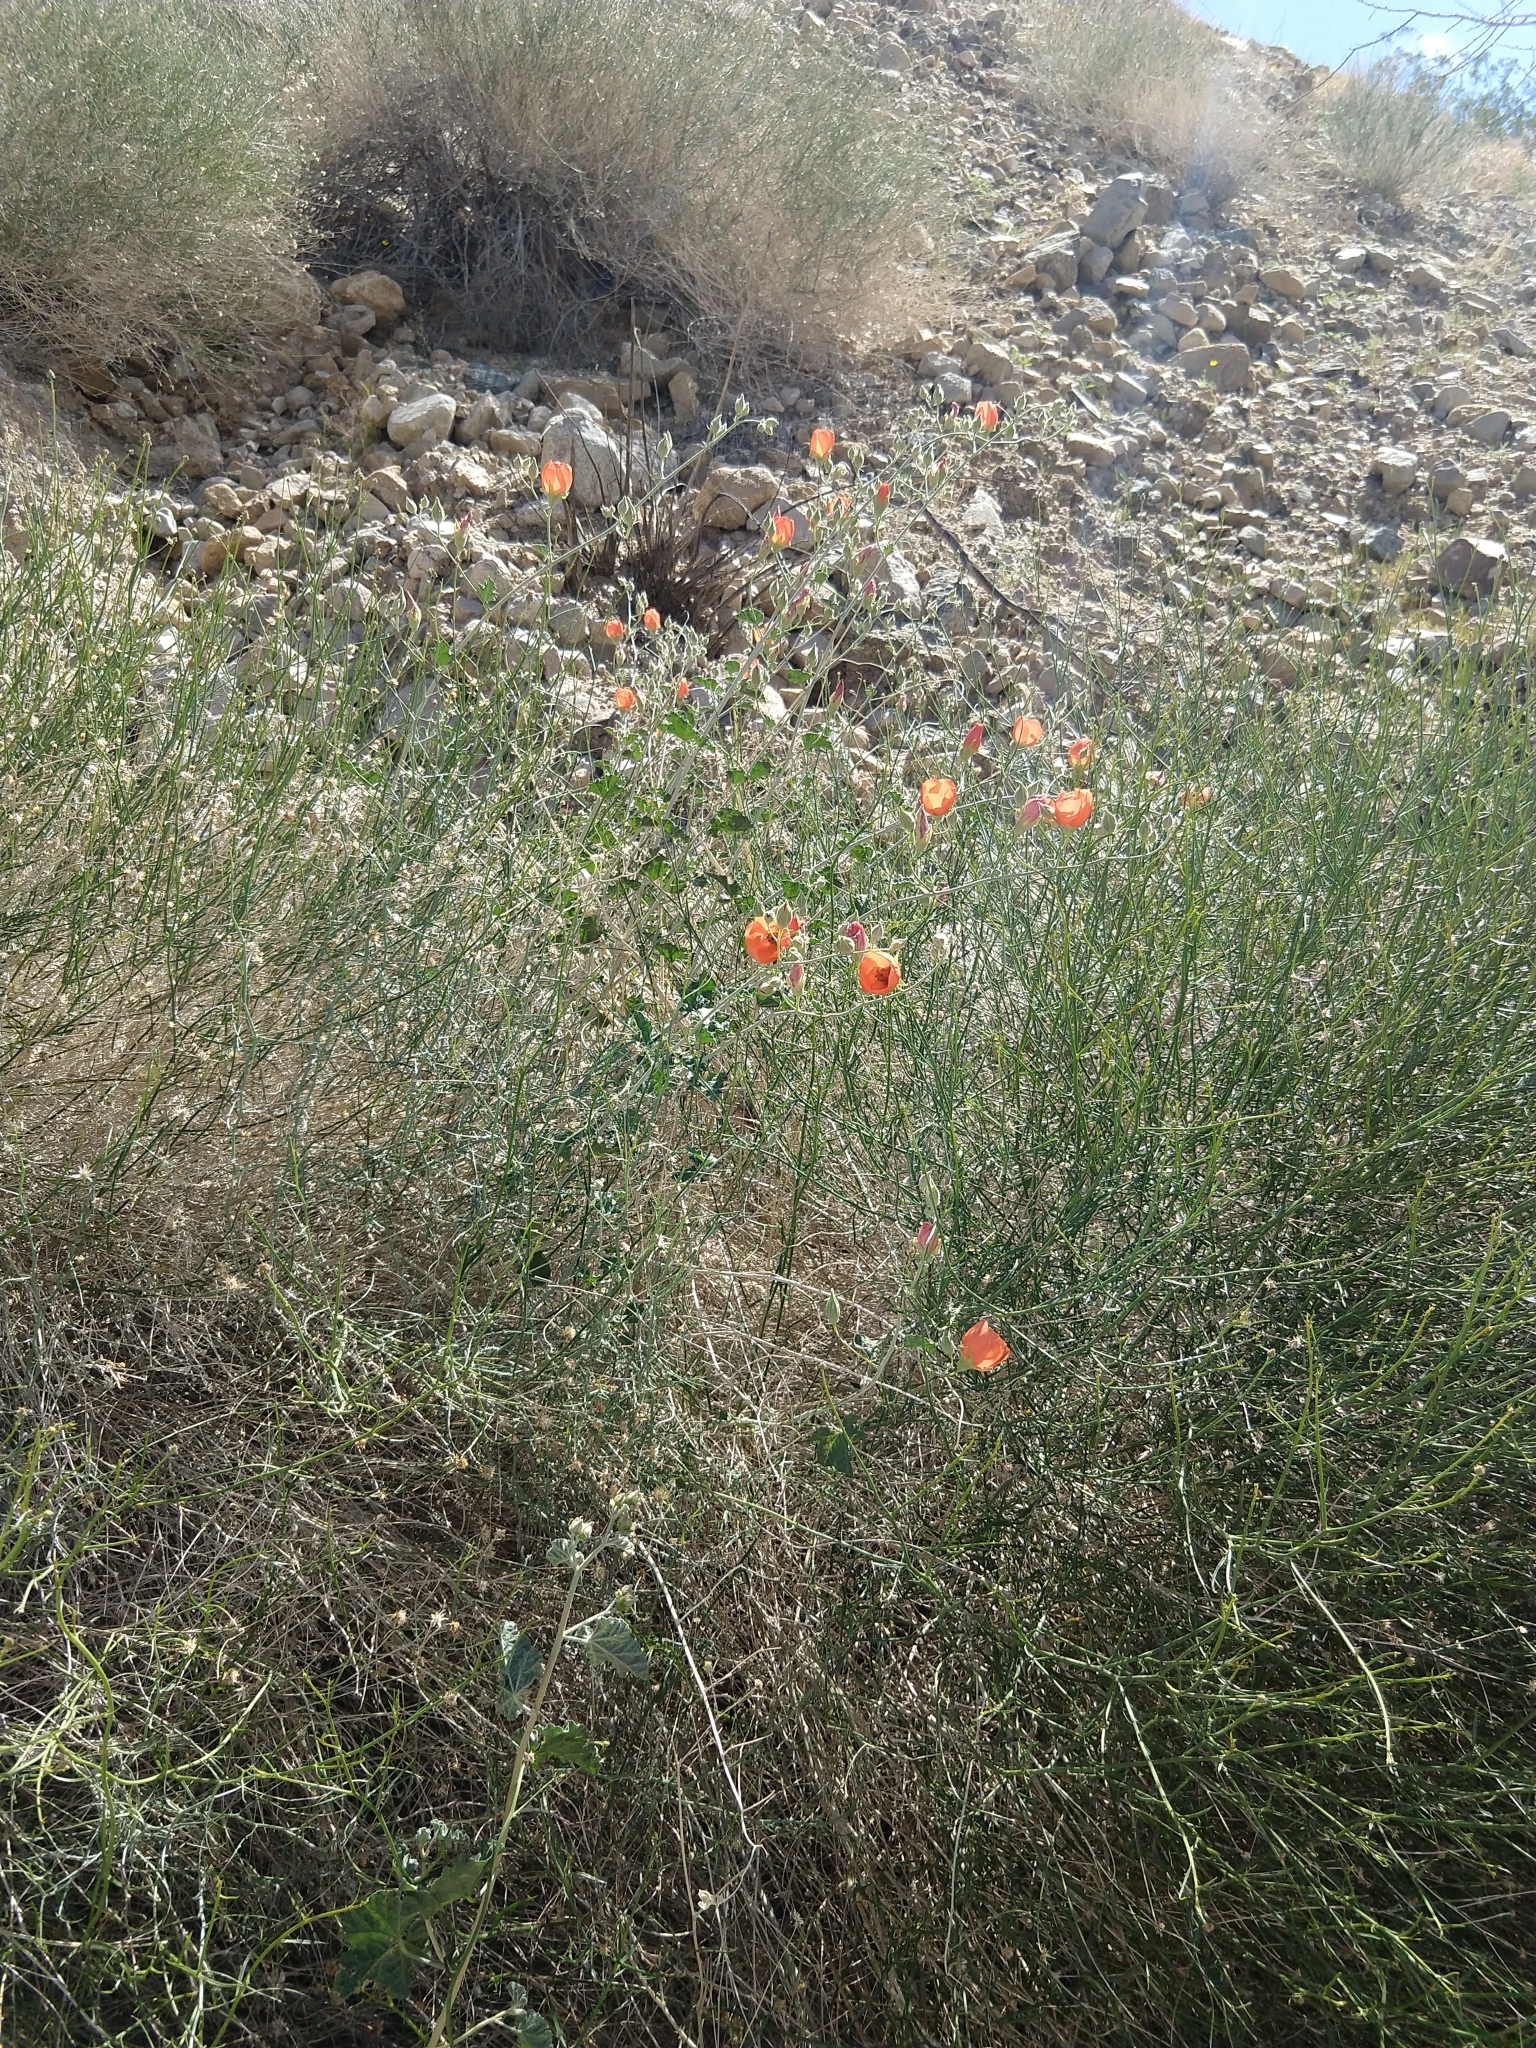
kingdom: Plantae
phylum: Tracheophyta
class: Magnoliopsida
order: Malvales
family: Malvaceae
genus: Sphaeralcea
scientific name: Sphaeralcea ambigua
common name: Apricot globe-mallow
